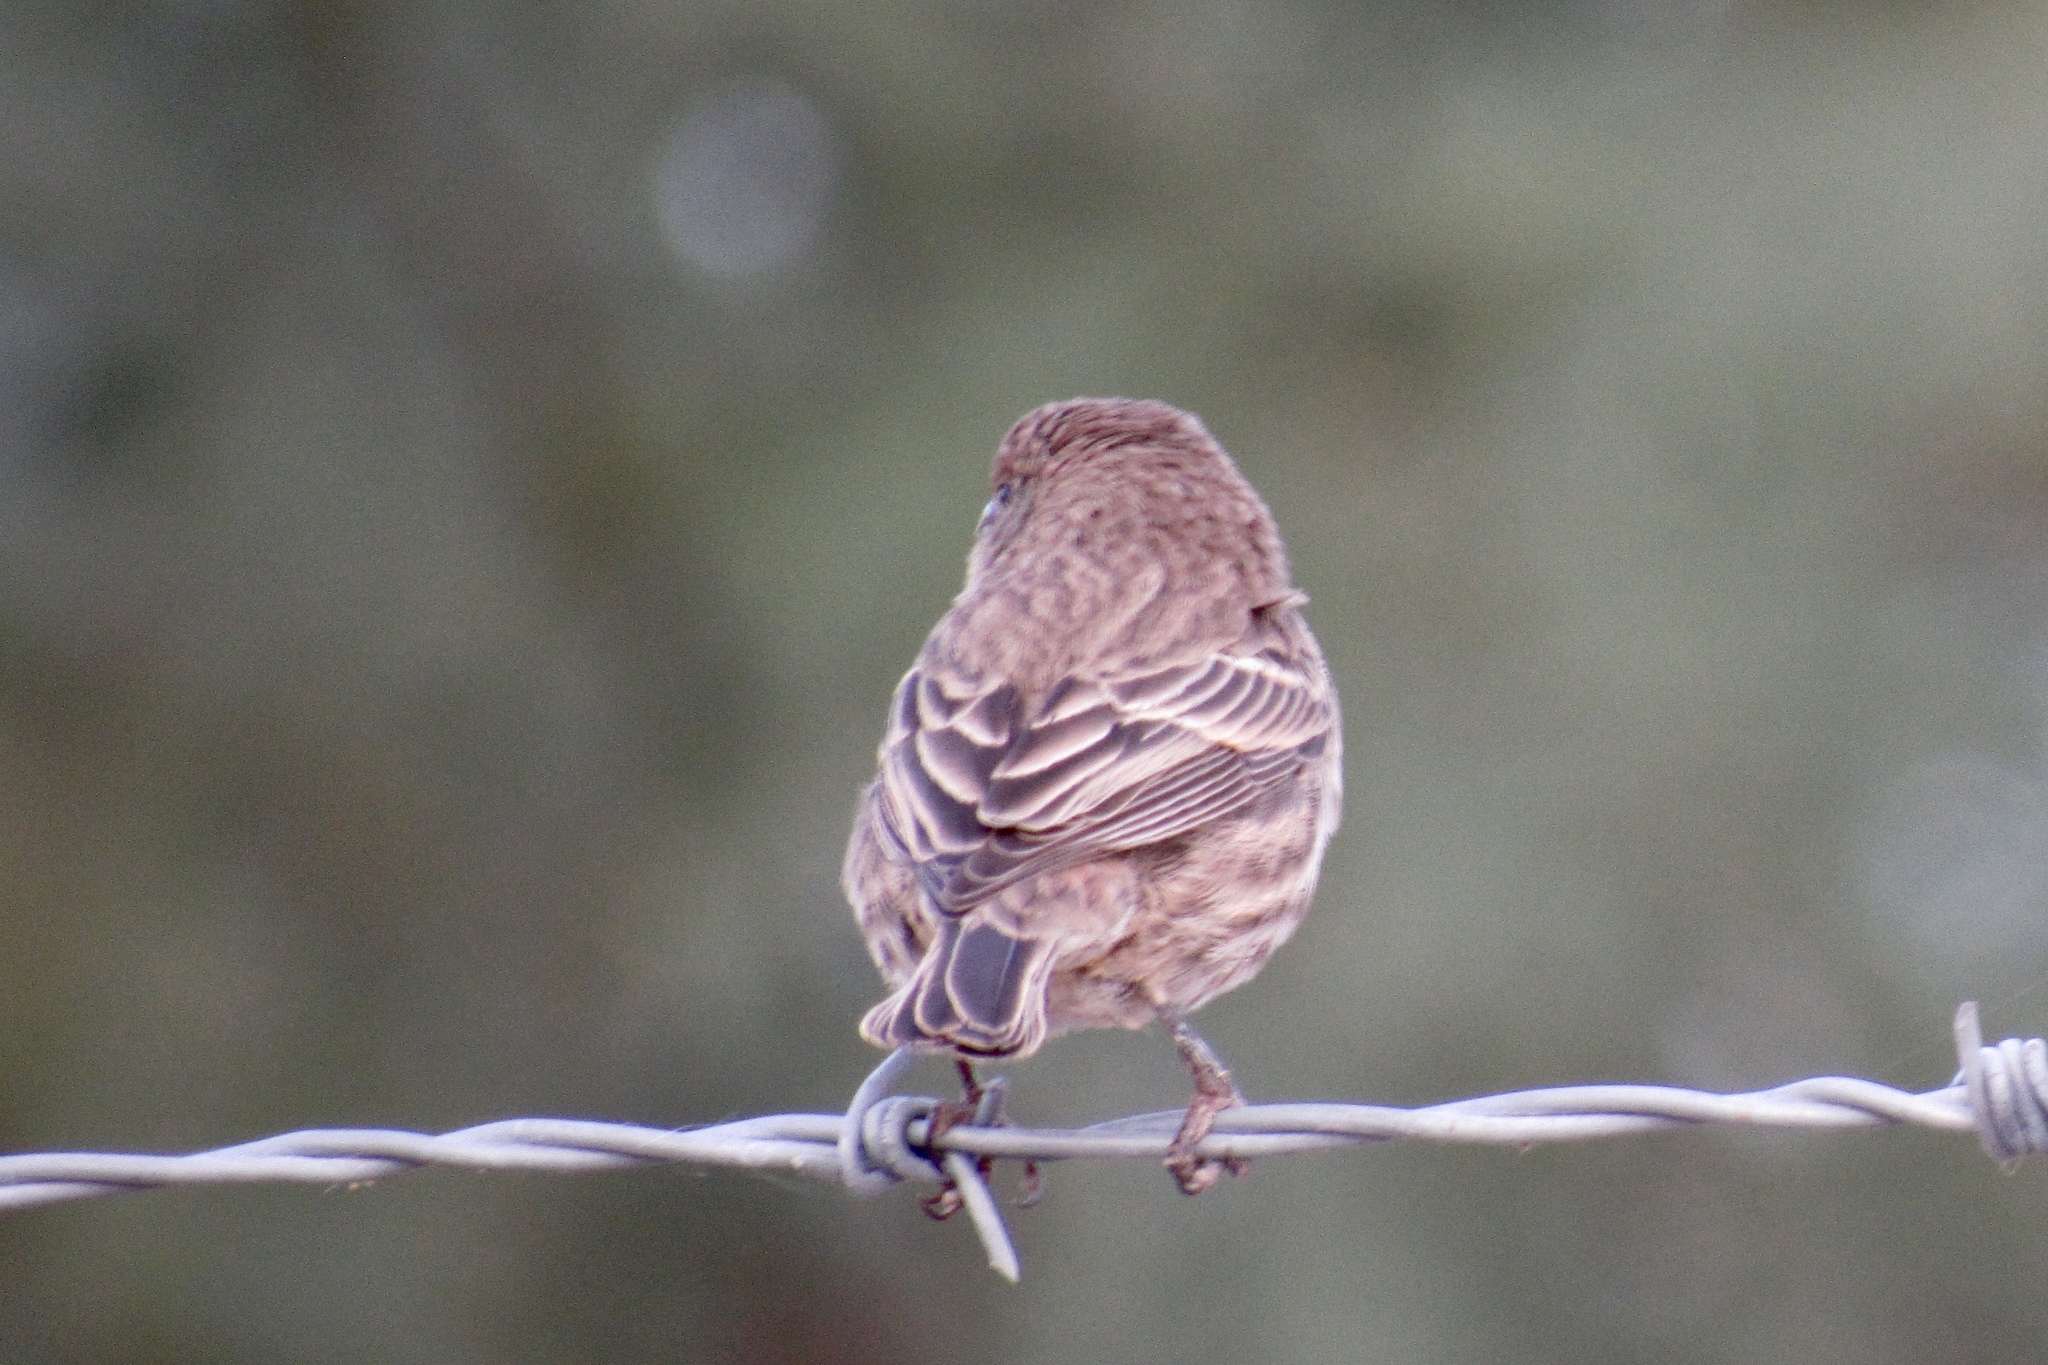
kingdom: Animalia
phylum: Chordata
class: Aves
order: Passeriformes
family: Fringillidae
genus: Haemorhous
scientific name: Haemorhous mexicanus
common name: House finch
